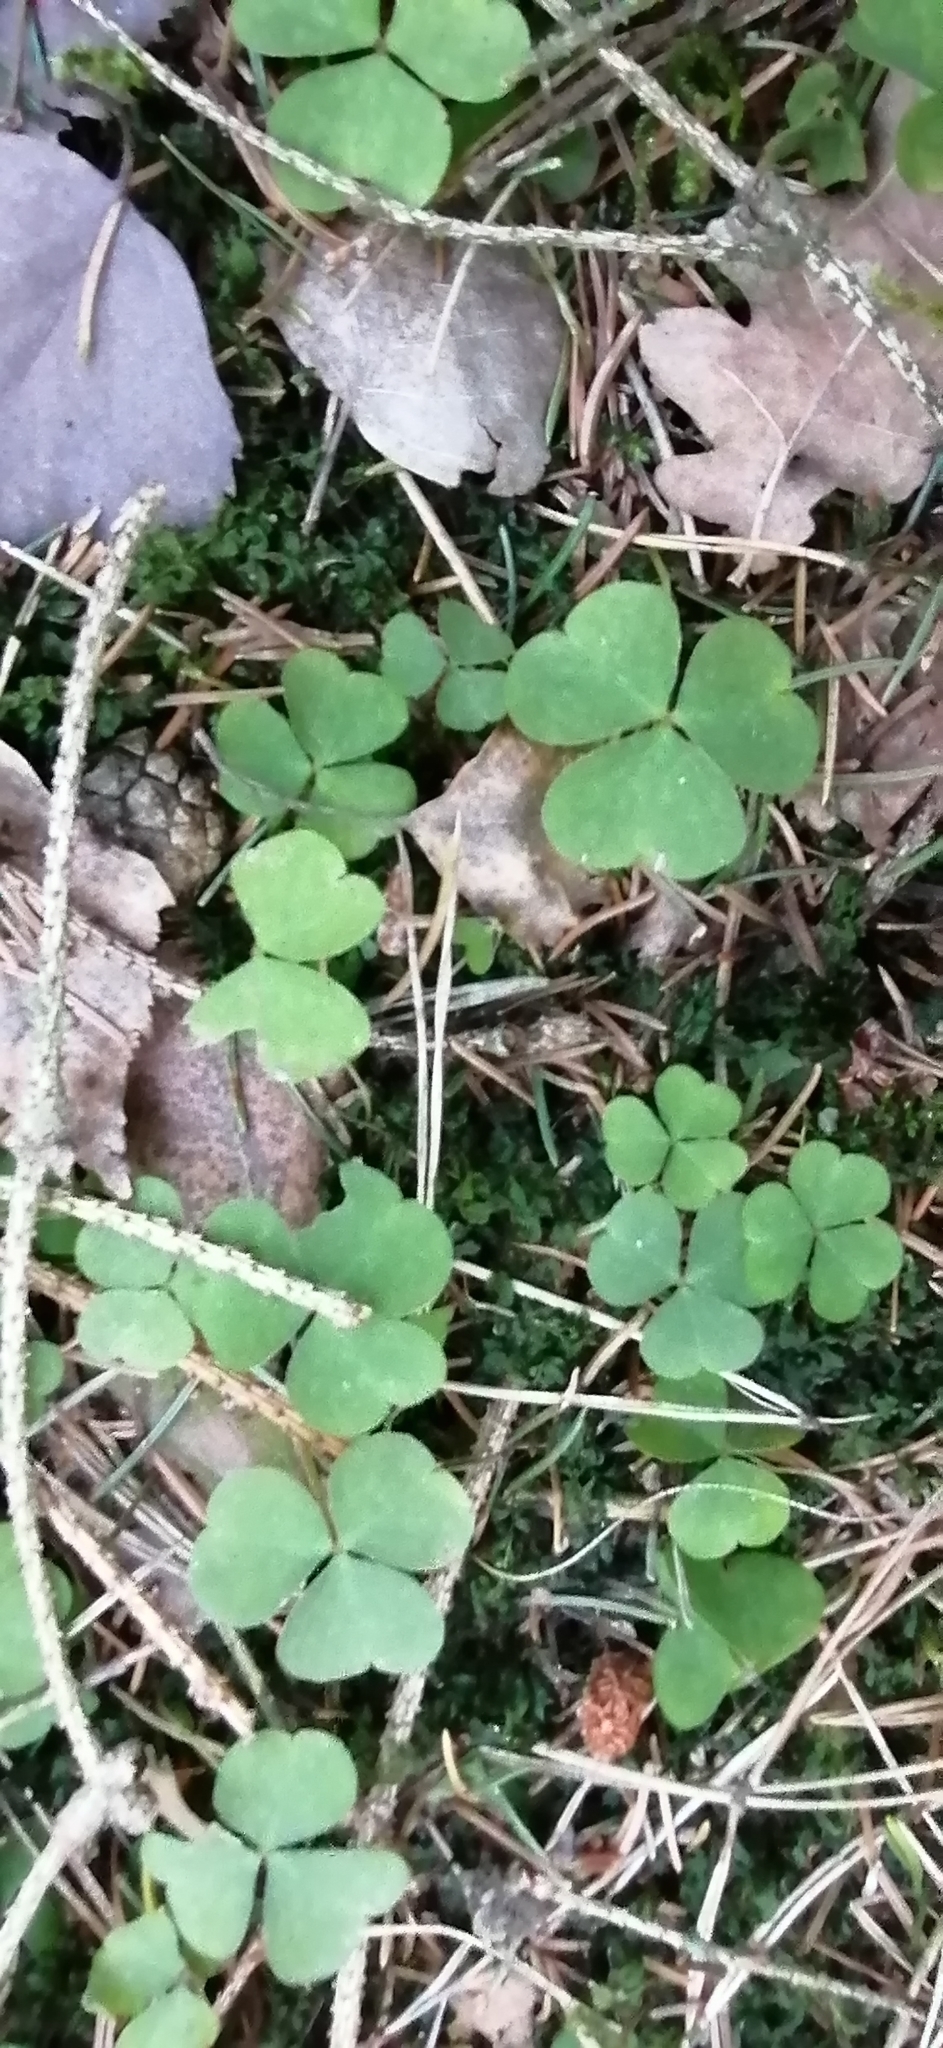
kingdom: Plantae
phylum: Tracheophyta
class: Magnoliopsida
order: Oxalidales
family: Oxalidaceae
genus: Oxalis
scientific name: Oxalis acetosella
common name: Wood-sorrel
